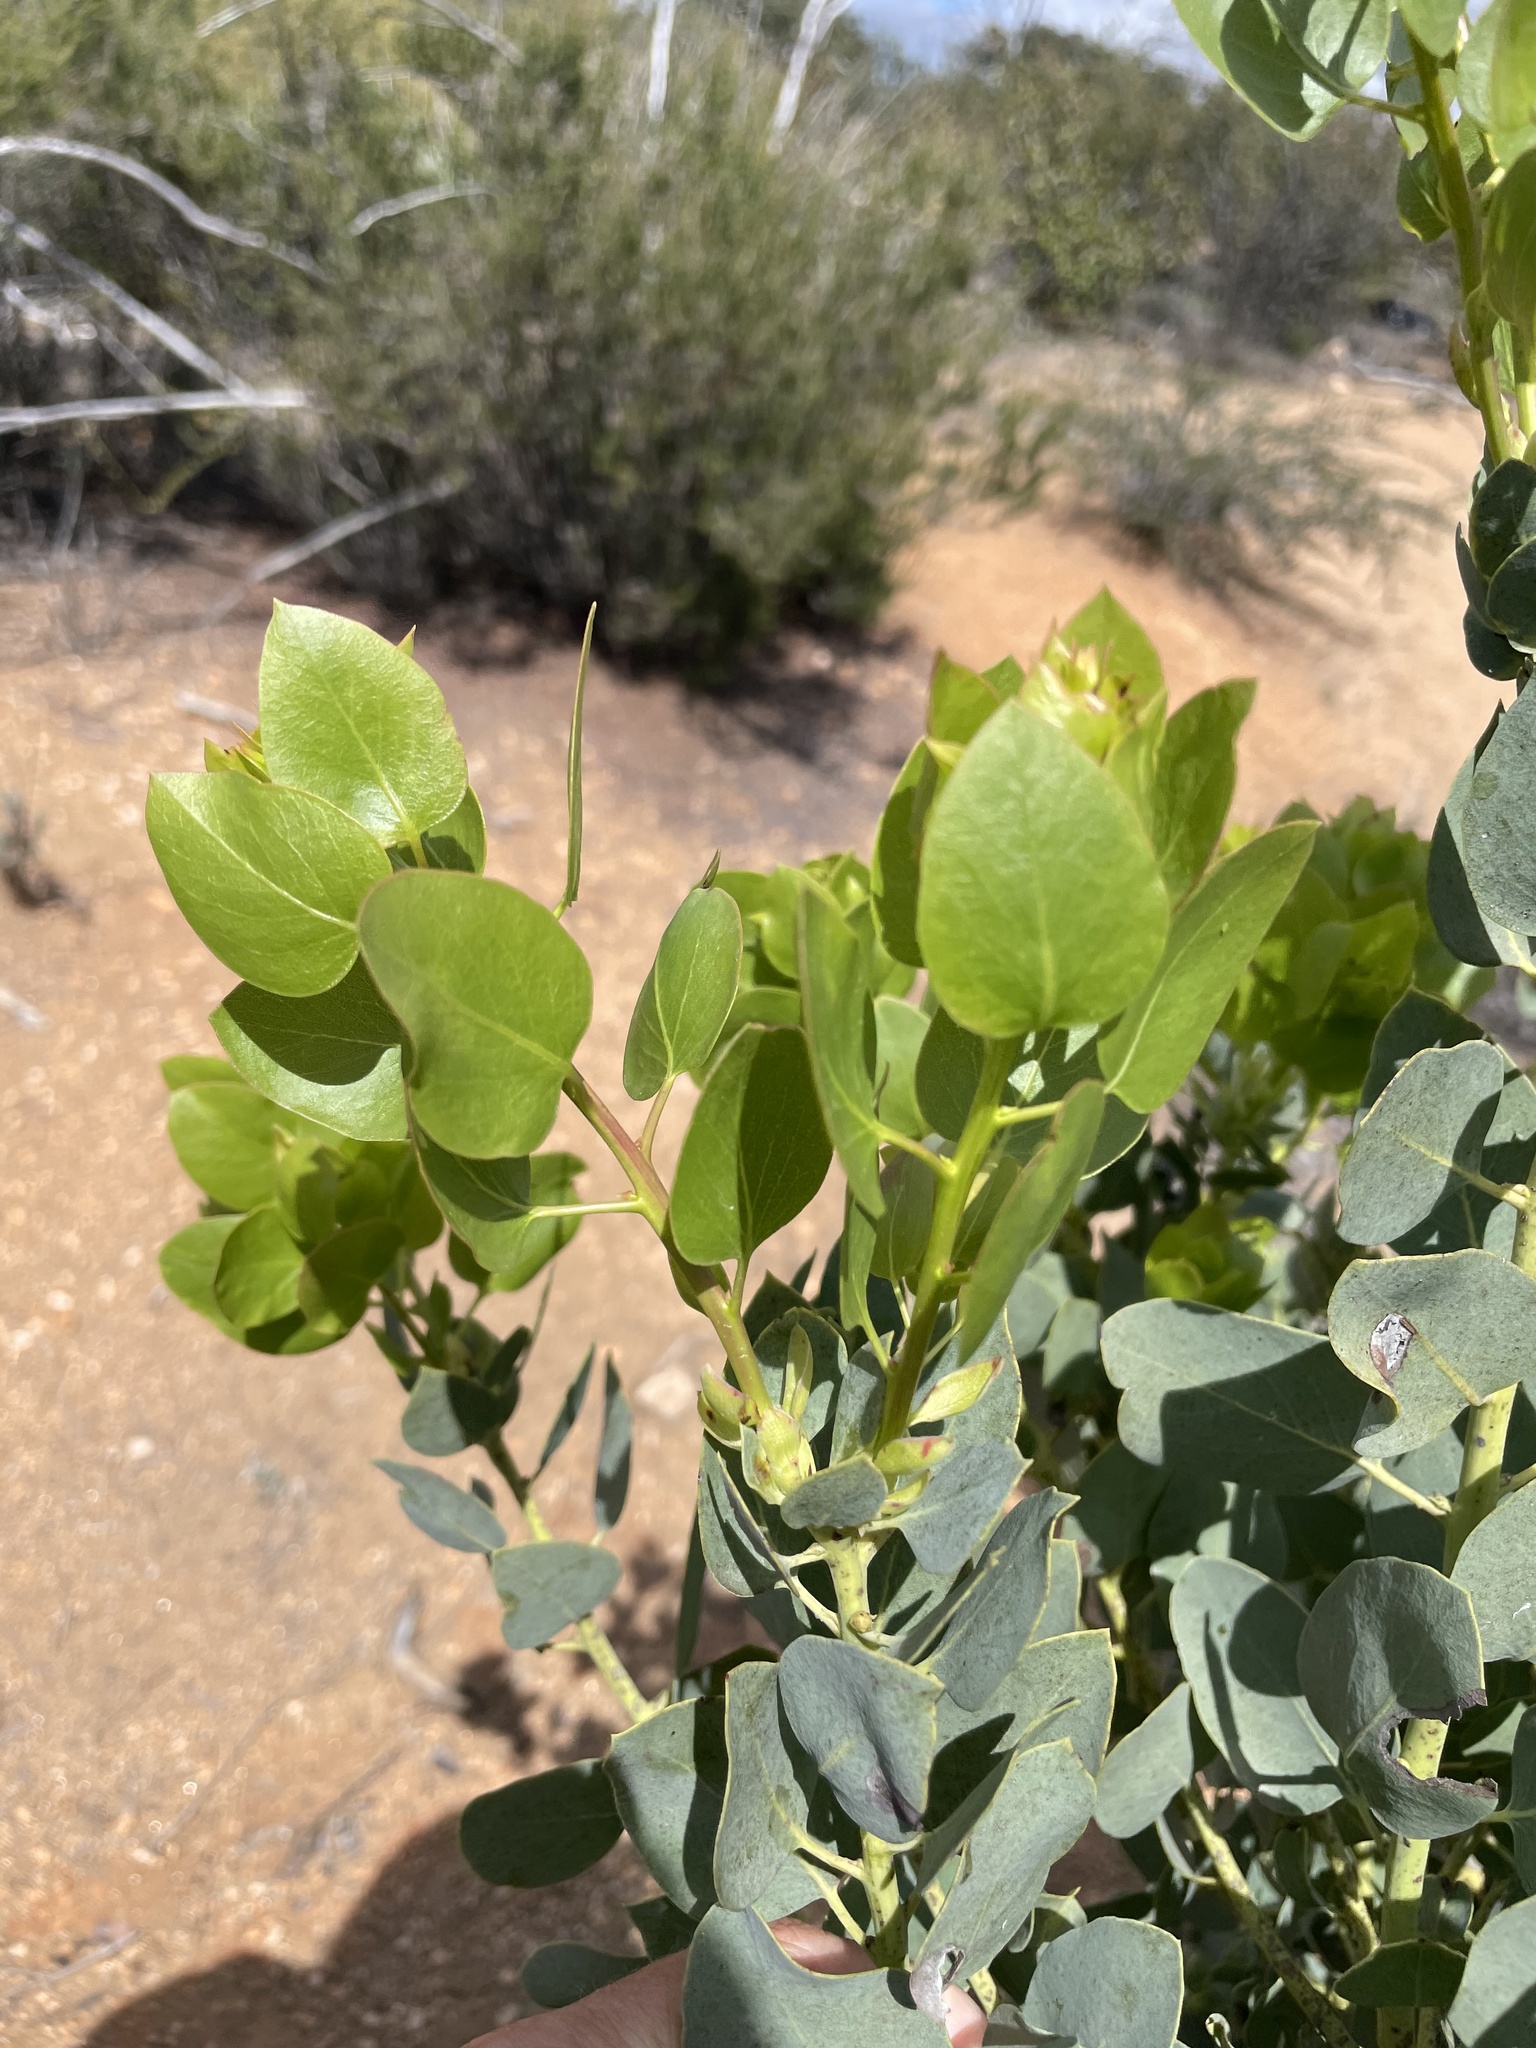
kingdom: Plantae
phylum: Tracheophyta
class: Magnoliopsida
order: Ericales
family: Ericaceae
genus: Arctostaphylos
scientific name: Arctostaphylos glauca
